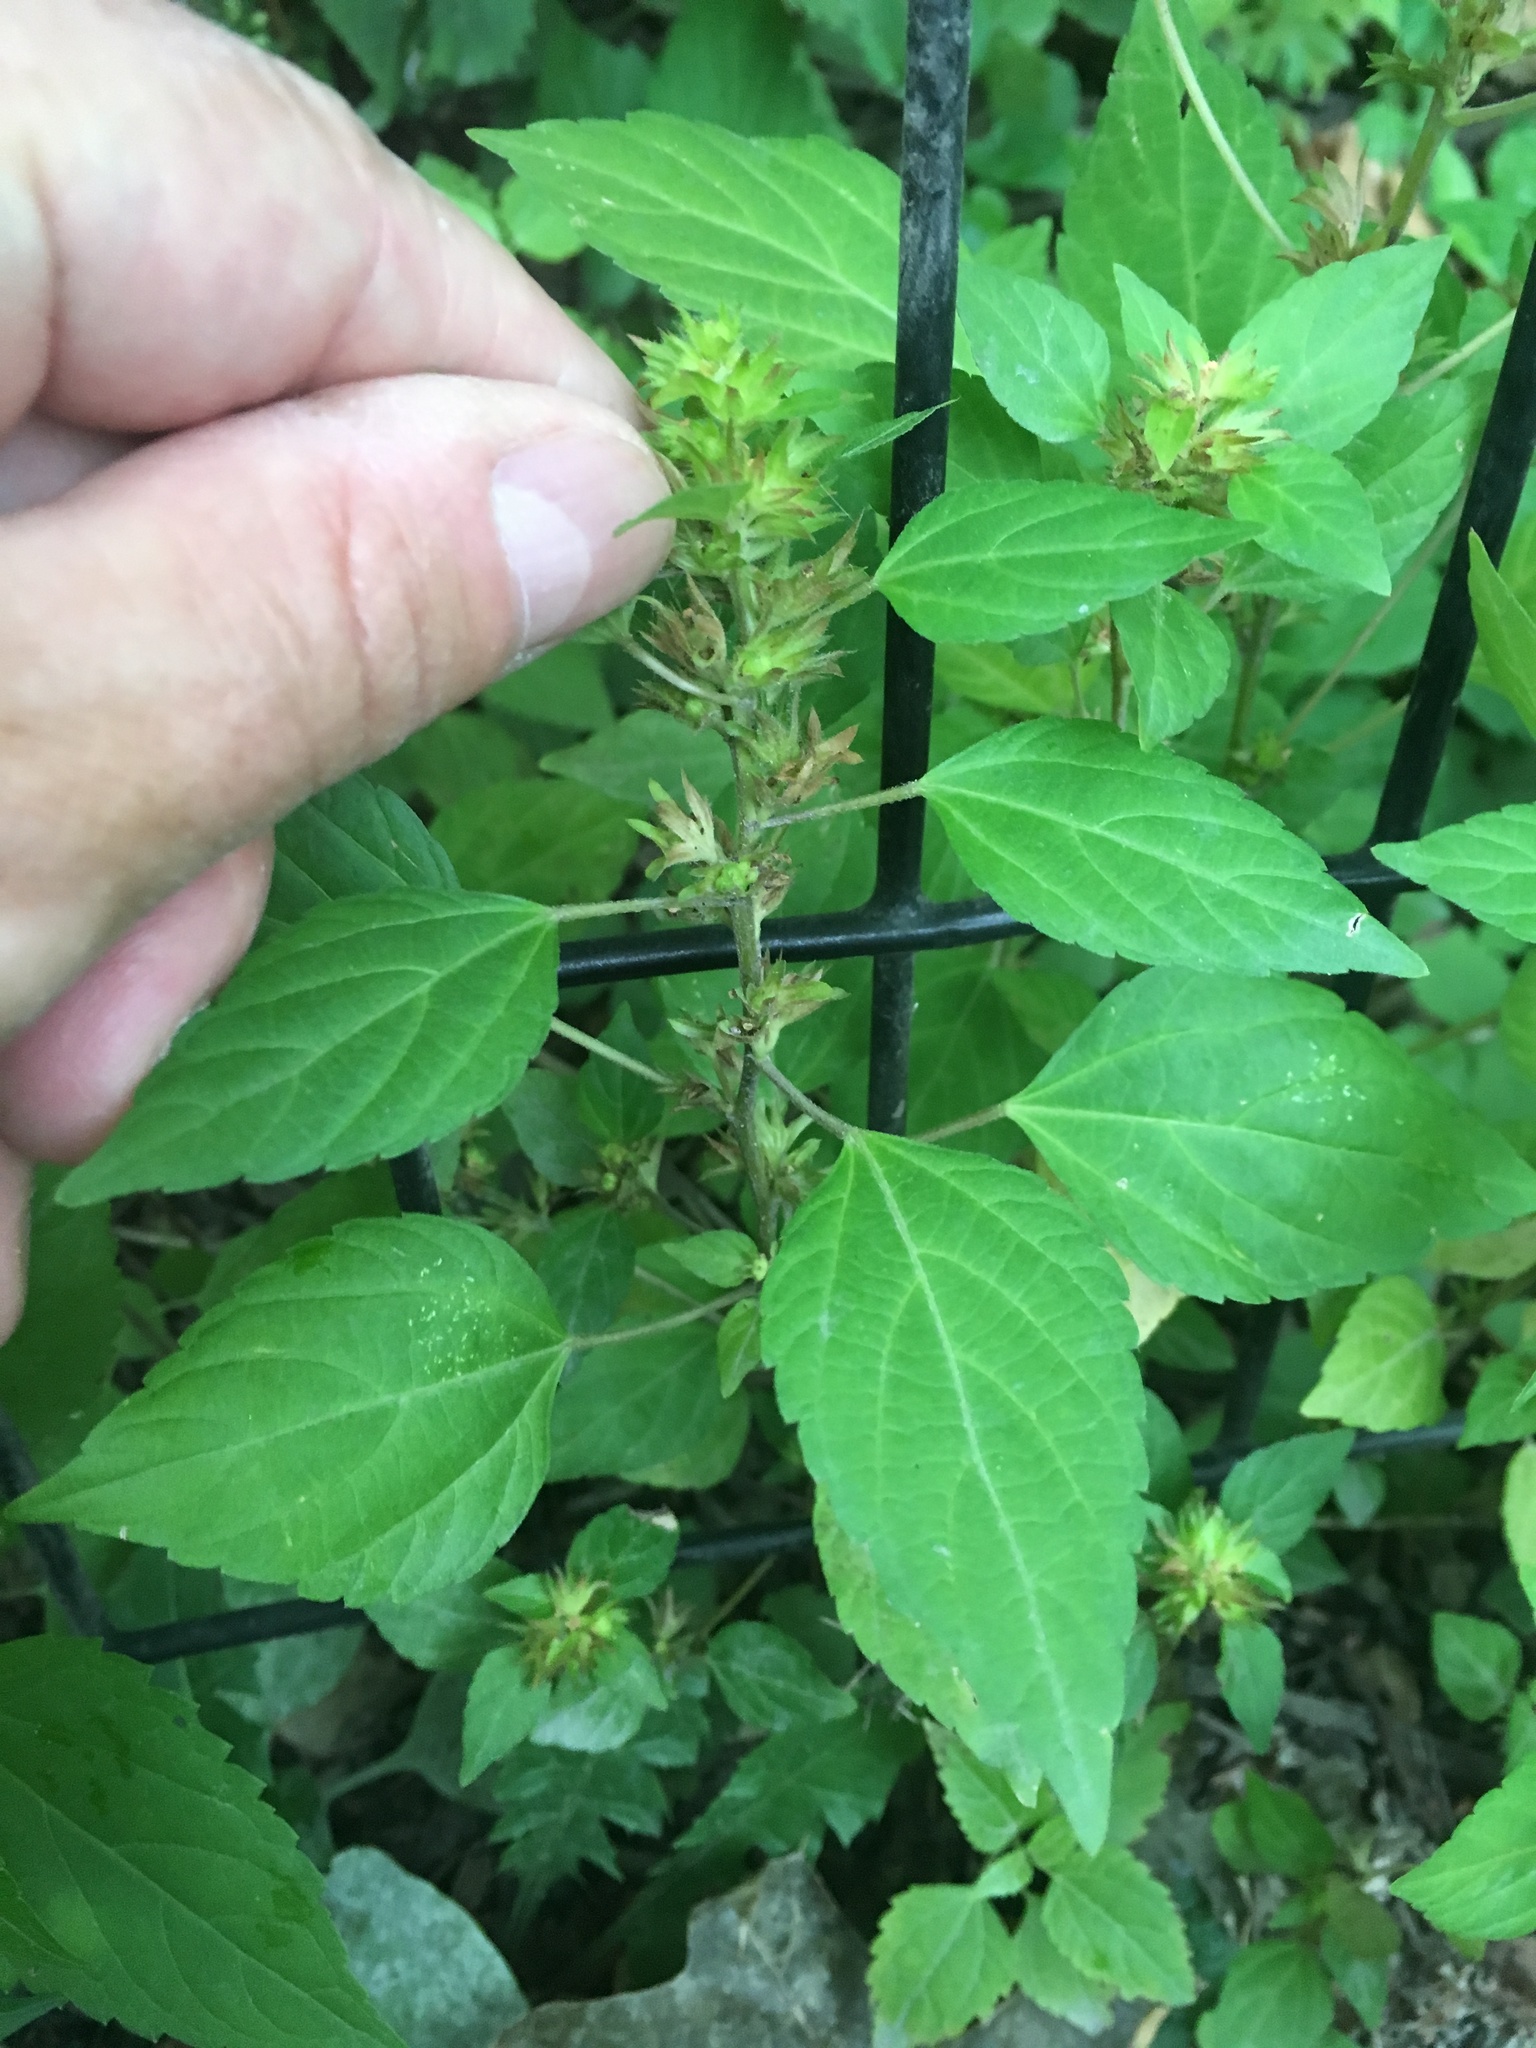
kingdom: Plantae
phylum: Tracheophyta
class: Magnoliopsida
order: Malpighiales
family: Euphorbiaceae
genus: Acalypha
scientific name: Acalypha rhomboidea
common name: Rhombic copperleaf
